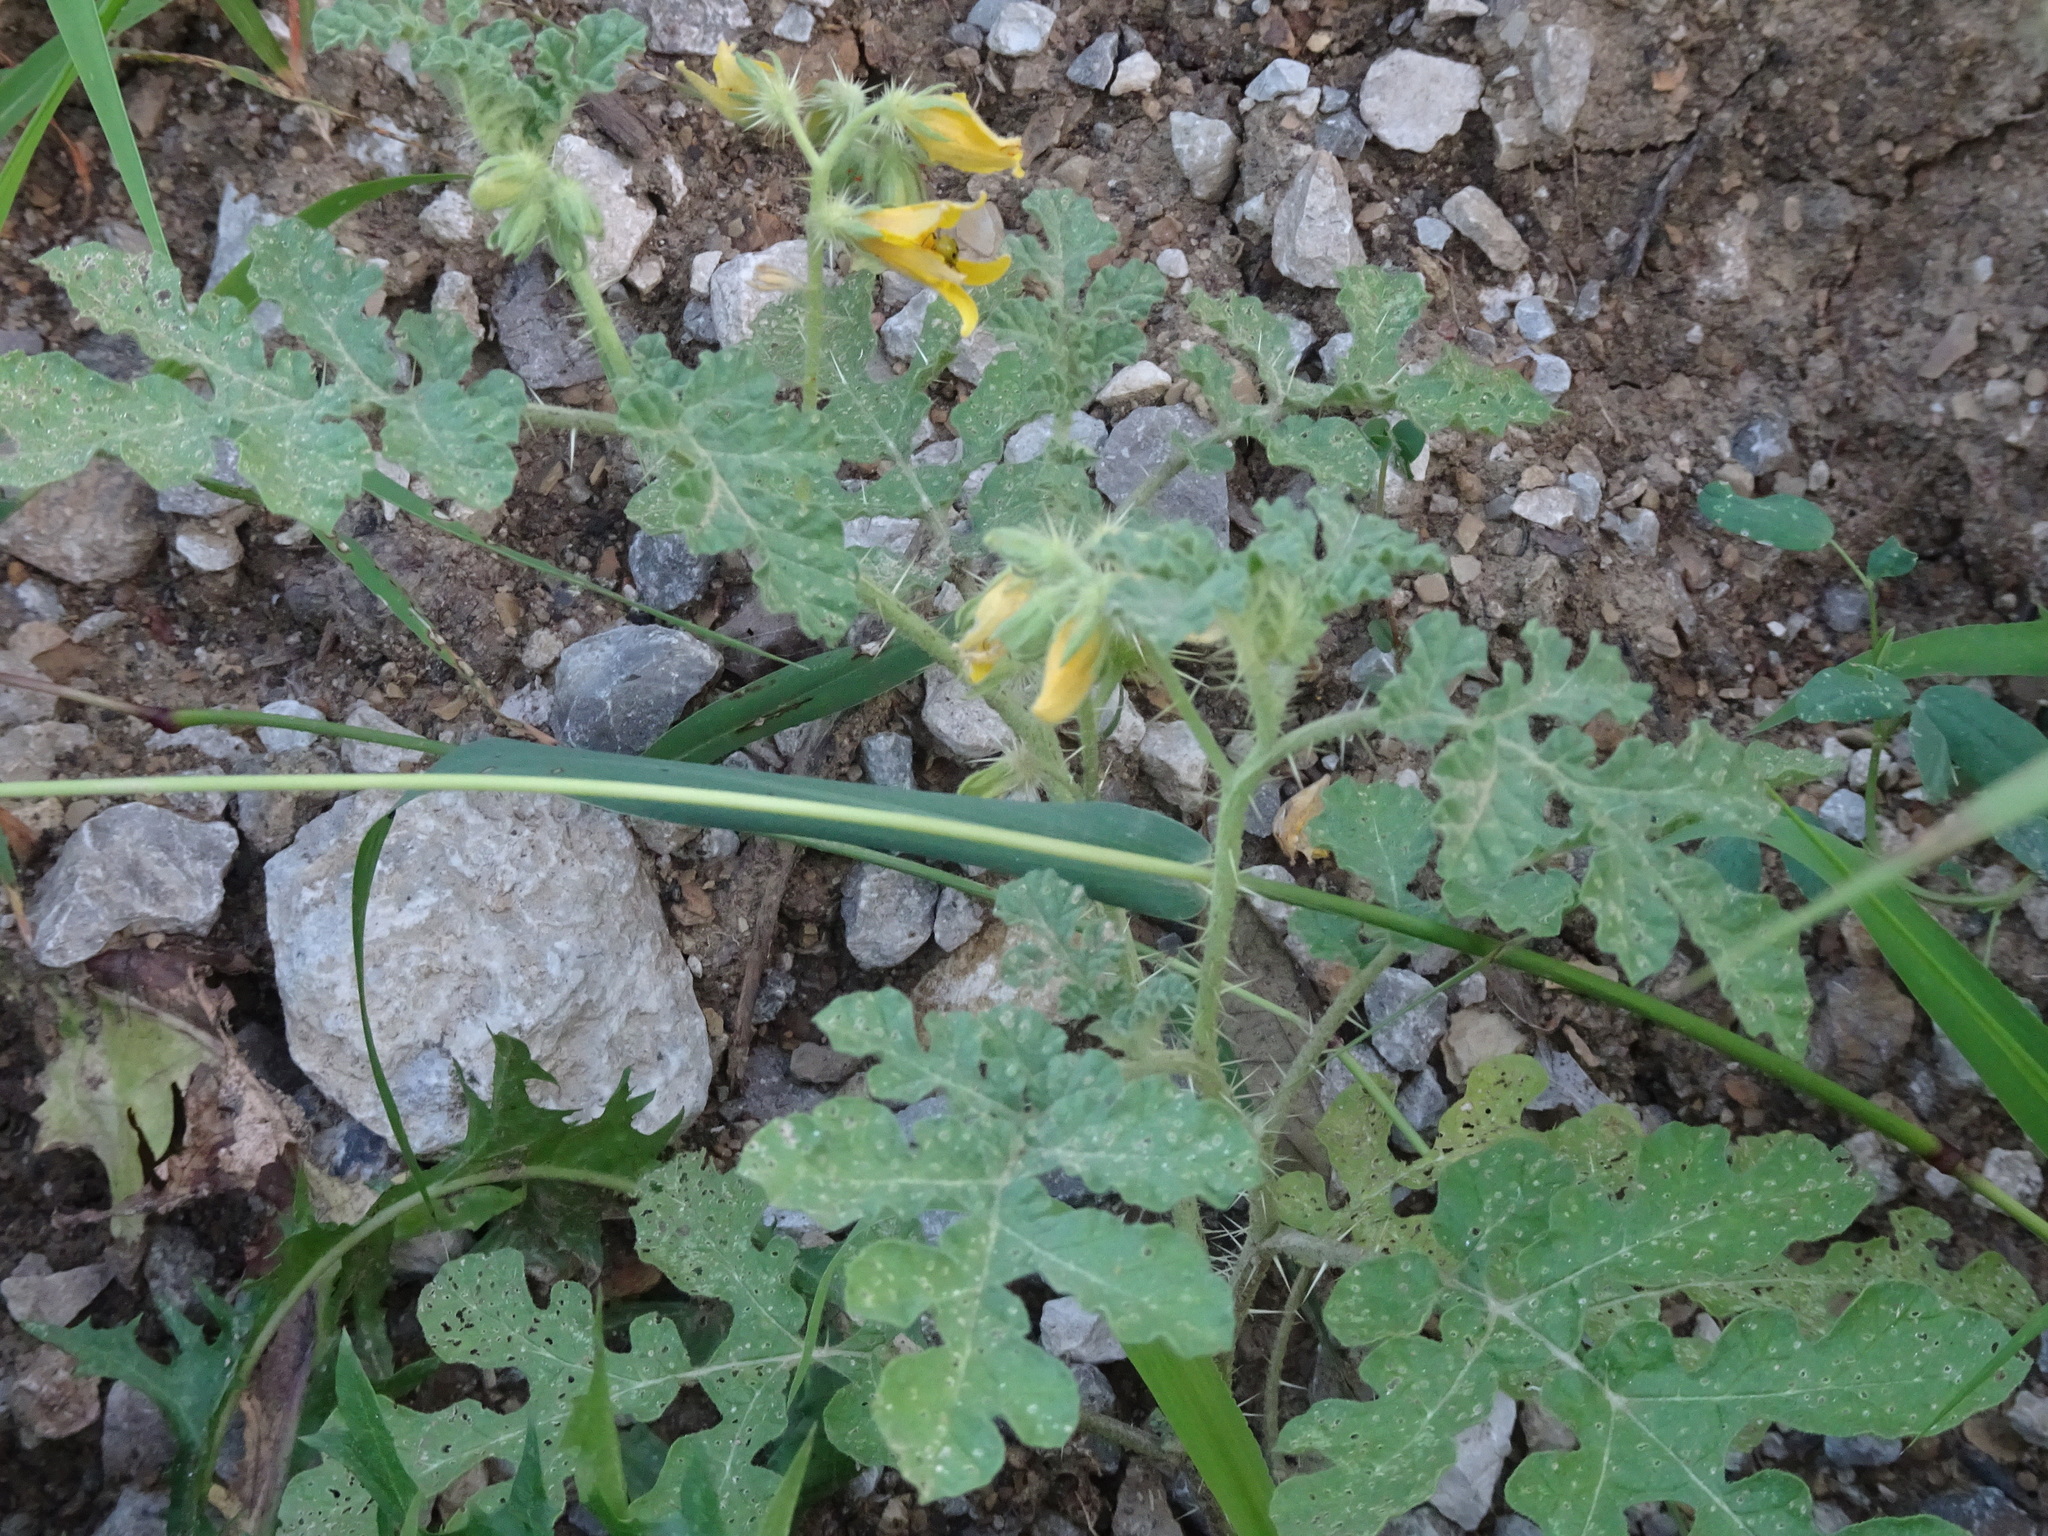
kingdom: Plantae
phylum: Tracheophyta
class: Magnoliopsida
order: Solanales
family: Solanaceae
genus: Solanum
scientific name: Solanum angustifolium
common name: Buffalobur nightshade
